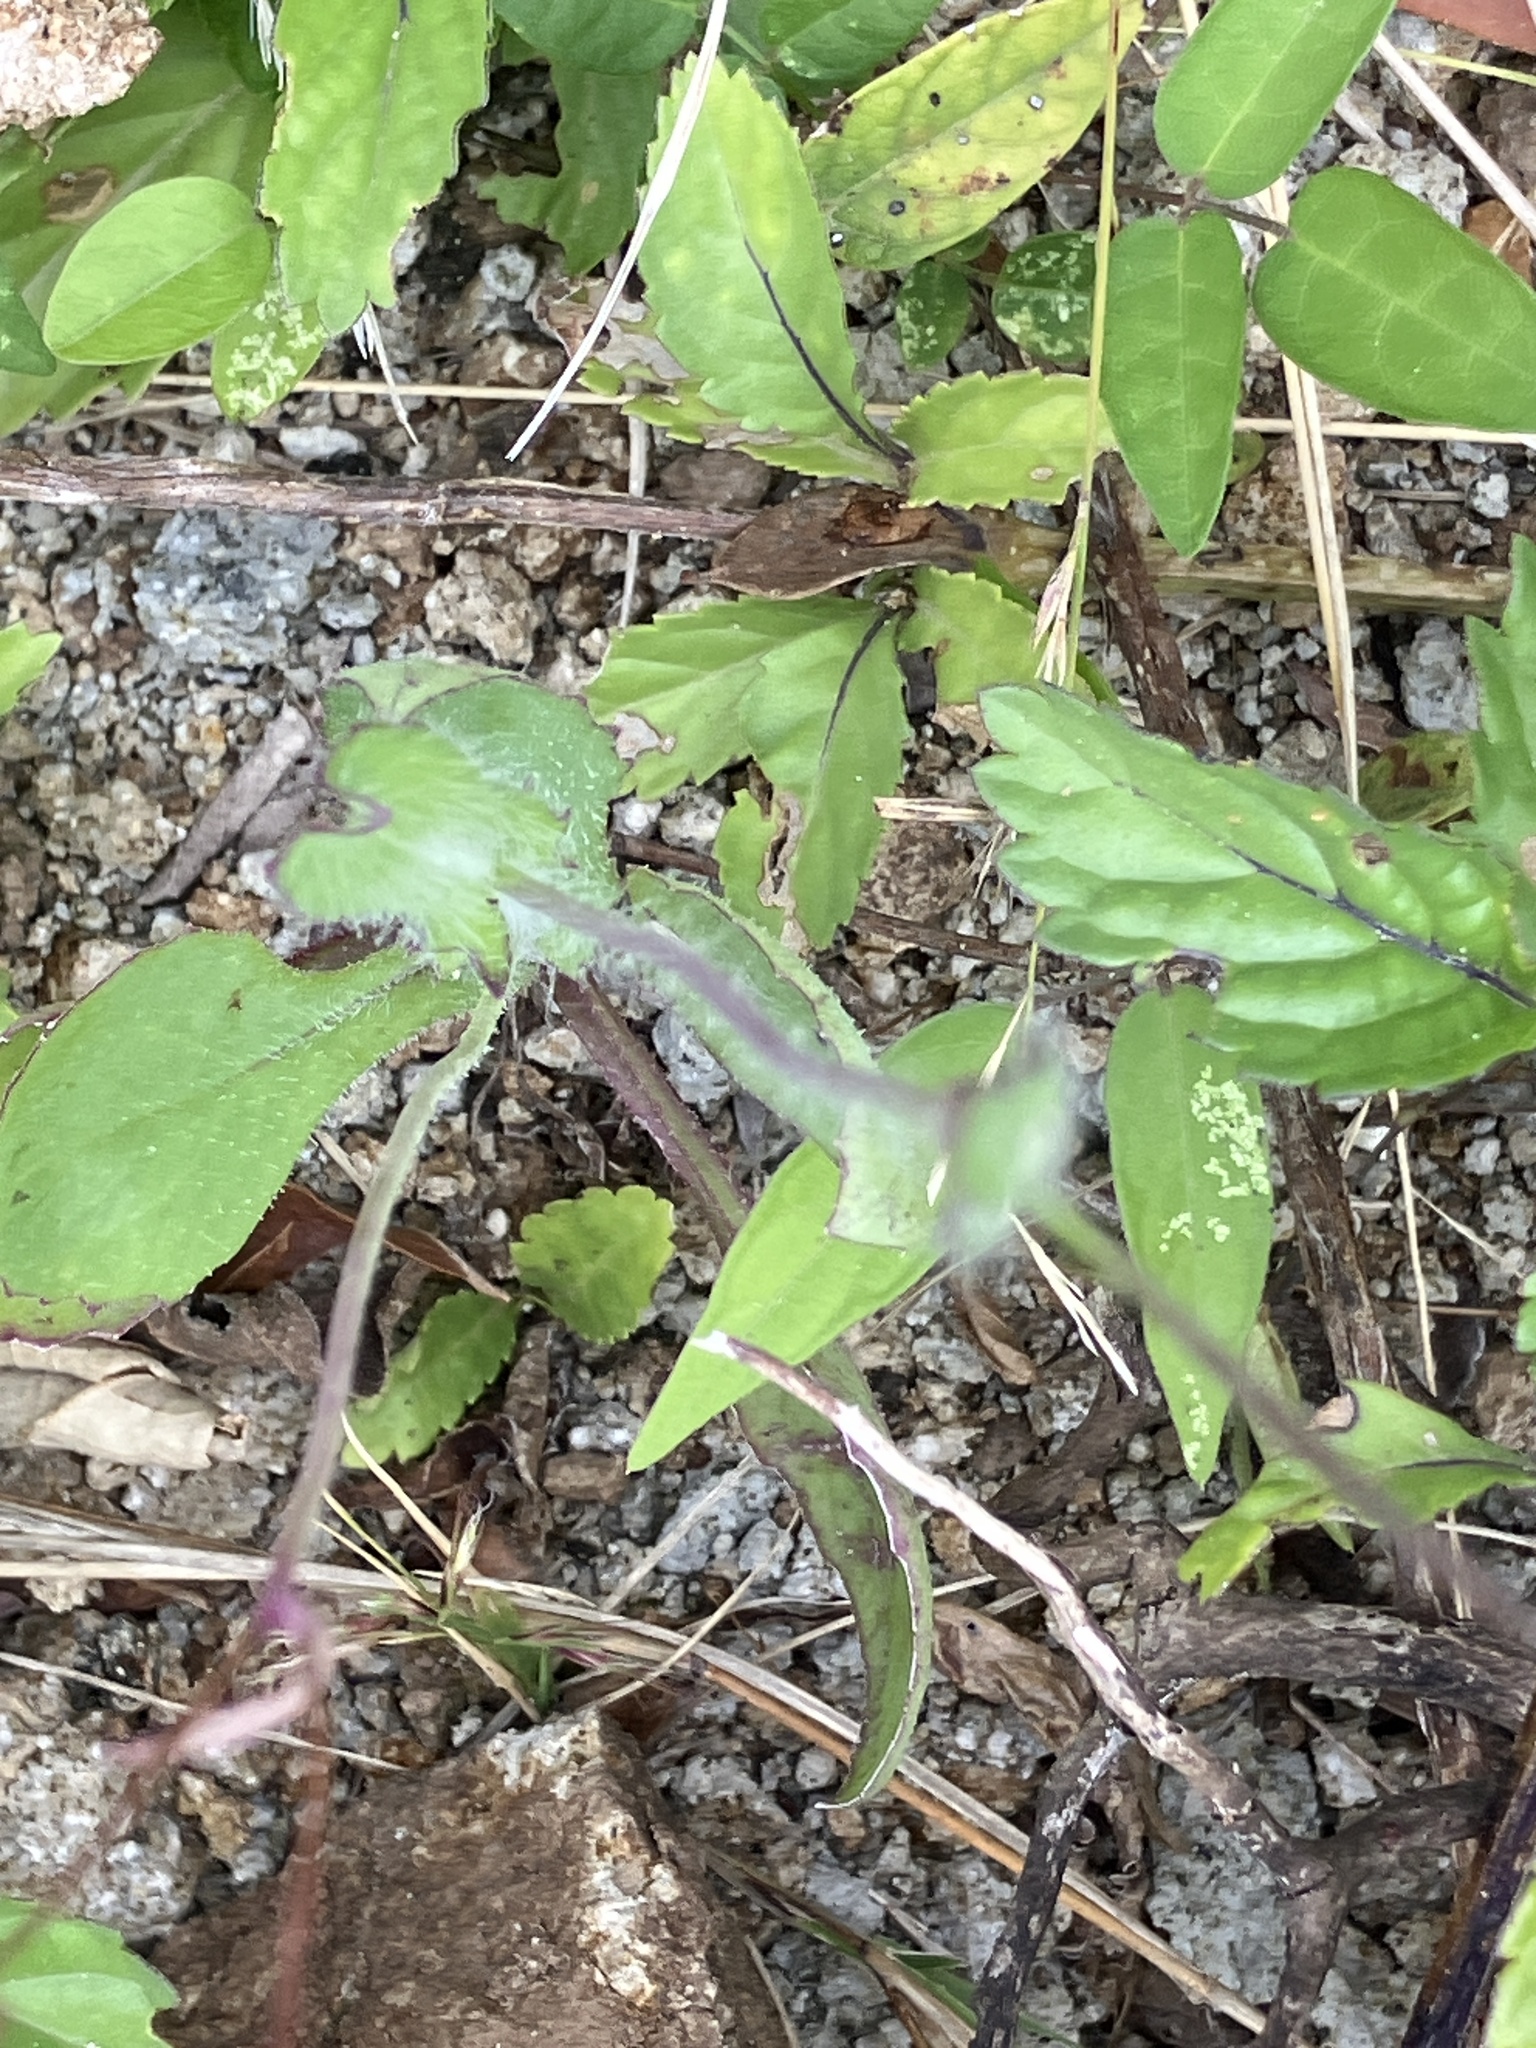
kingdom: Plantae
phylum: Tracheophyta
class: Magnoliopsida
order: Asterales
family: Asteraceae
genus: Emilia
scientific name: Emilia fosbergii
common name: Florida tasselflower
